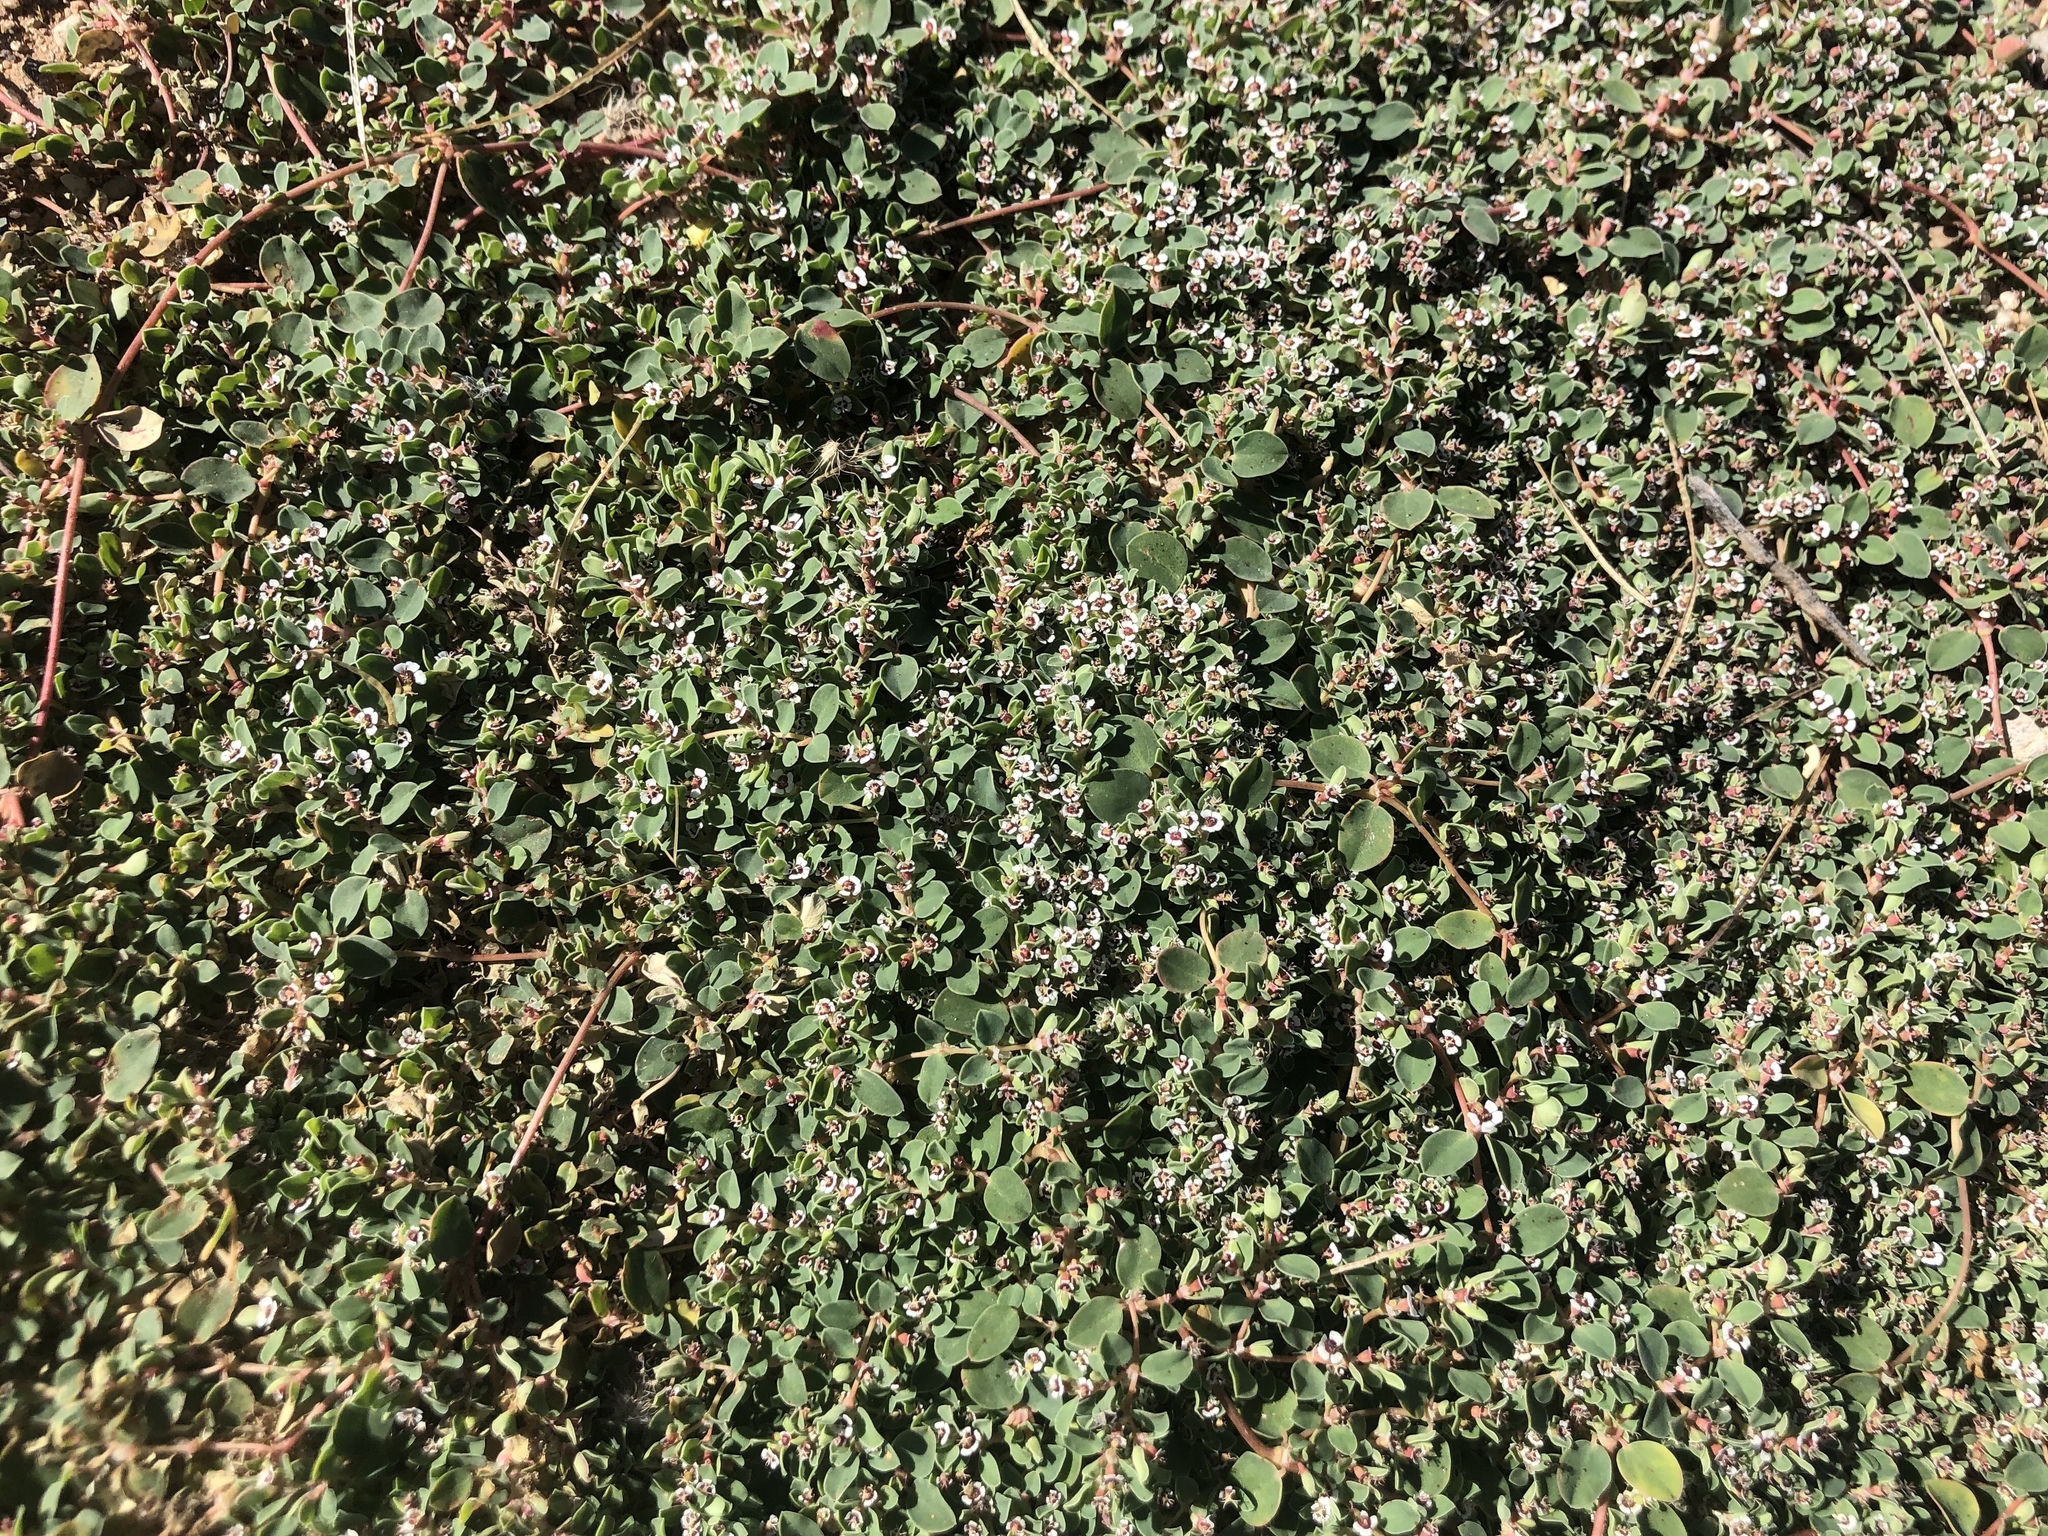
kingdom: Plantae
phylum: Tracheophyta
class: Magnoliopsida
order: Malpighiales
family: Euphorbiaceae
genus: Euphorbia
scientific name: Euphorbia albomarginata
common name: Whitemargin sandmat
